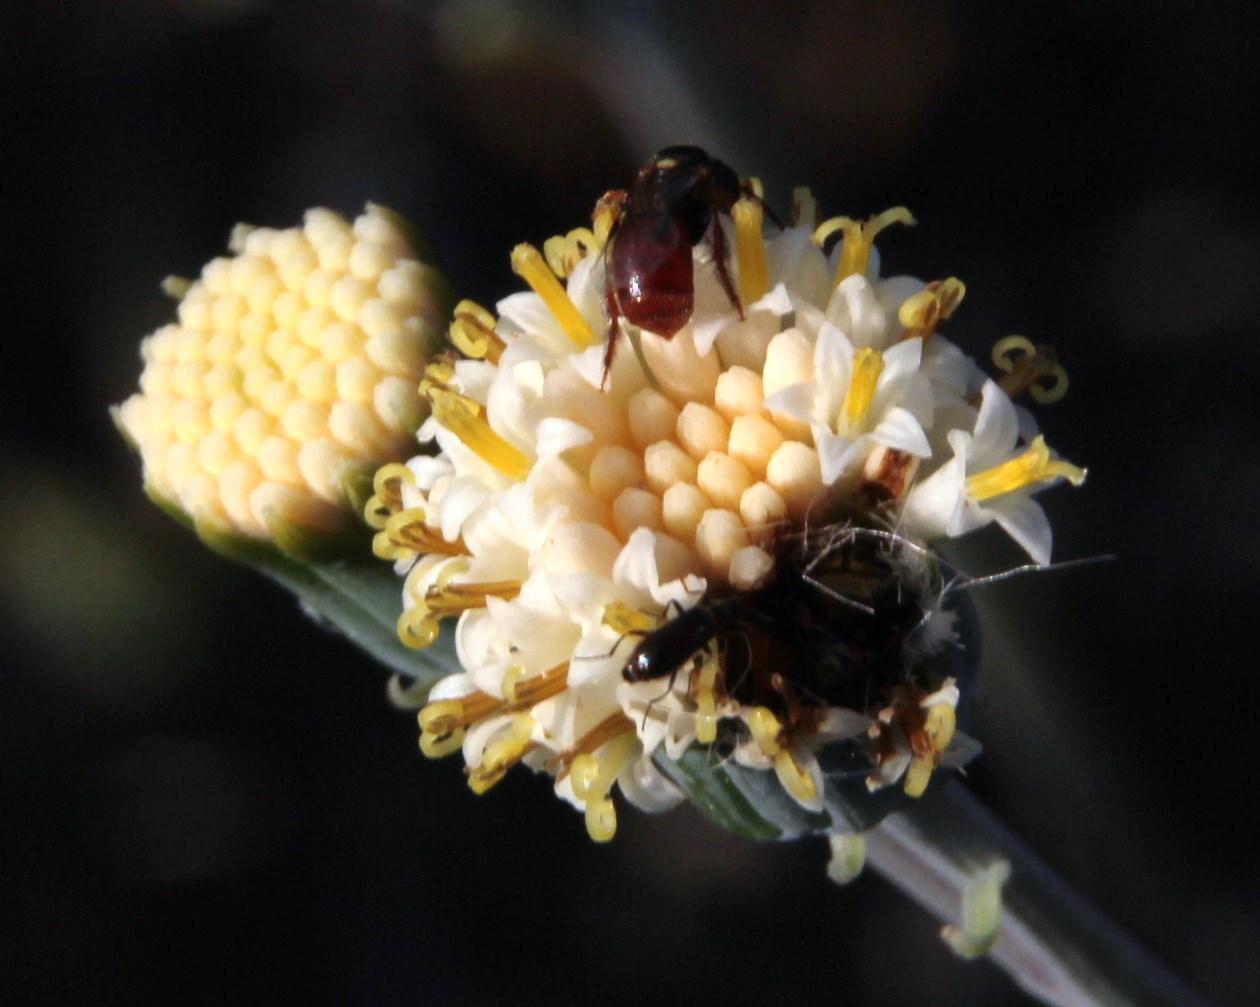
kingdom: Plantae
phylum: Tracheophyta
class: Magnoliopsida
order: Asterales
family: Asteraceae
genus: Curio
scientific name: Curio talinoides
